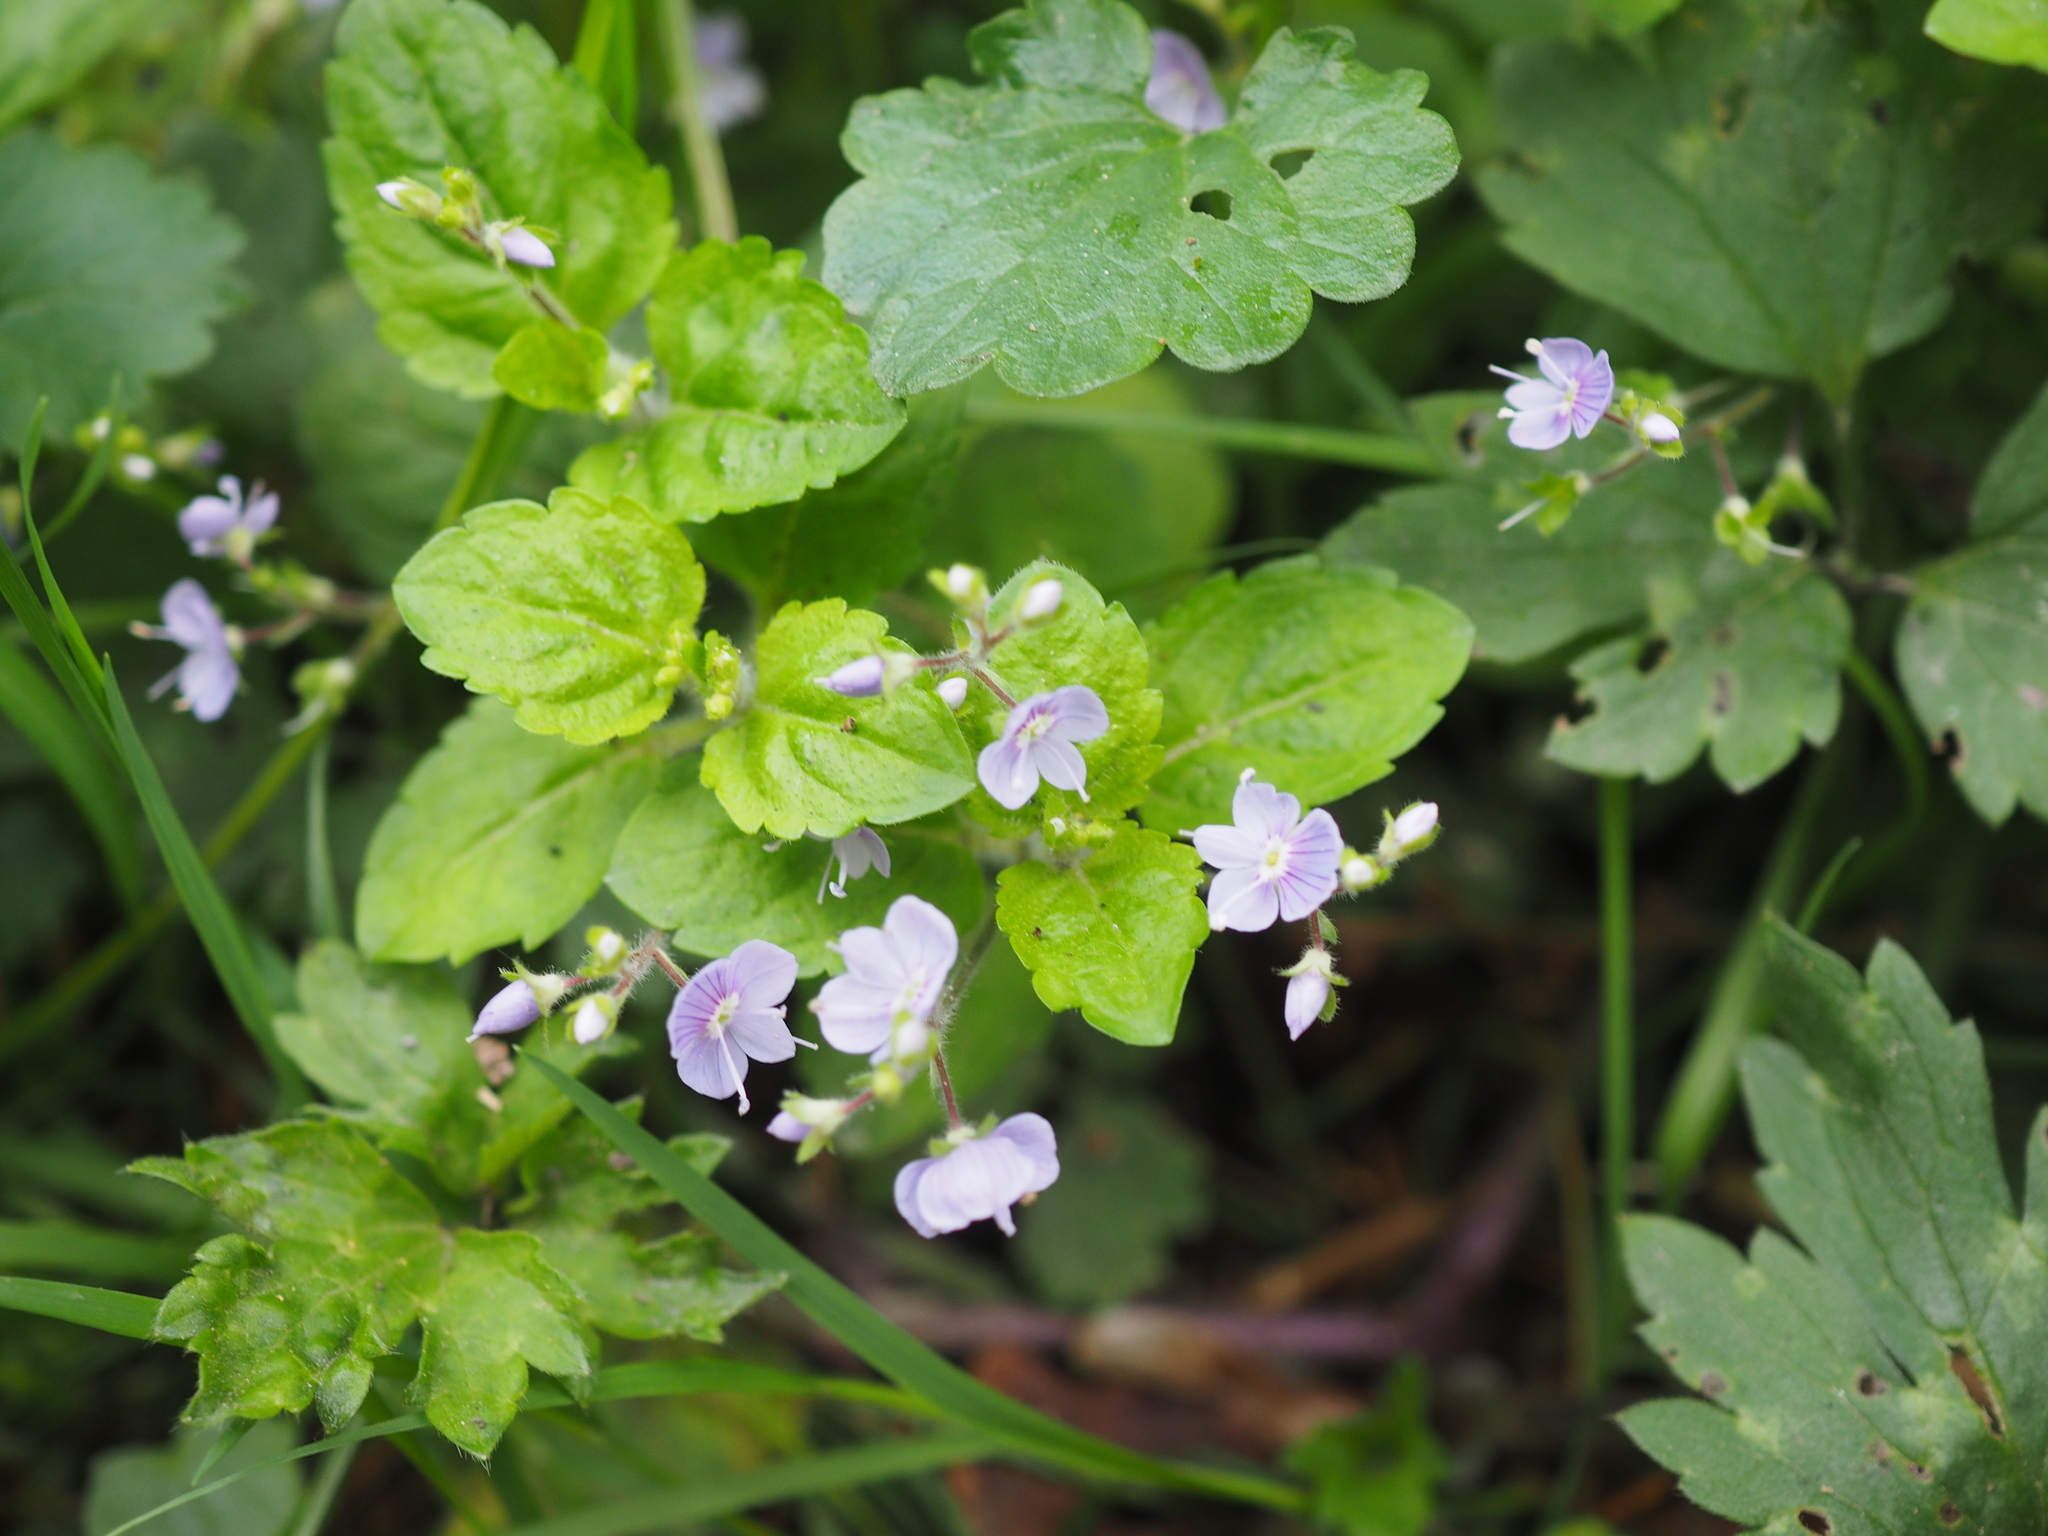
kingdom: Plantae
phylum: Tracheophyta
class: Magnoliopsida
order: Lamiales
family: Plantaginaceae
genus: Veronica
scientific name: Veronica montana
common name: Wood speedwell
